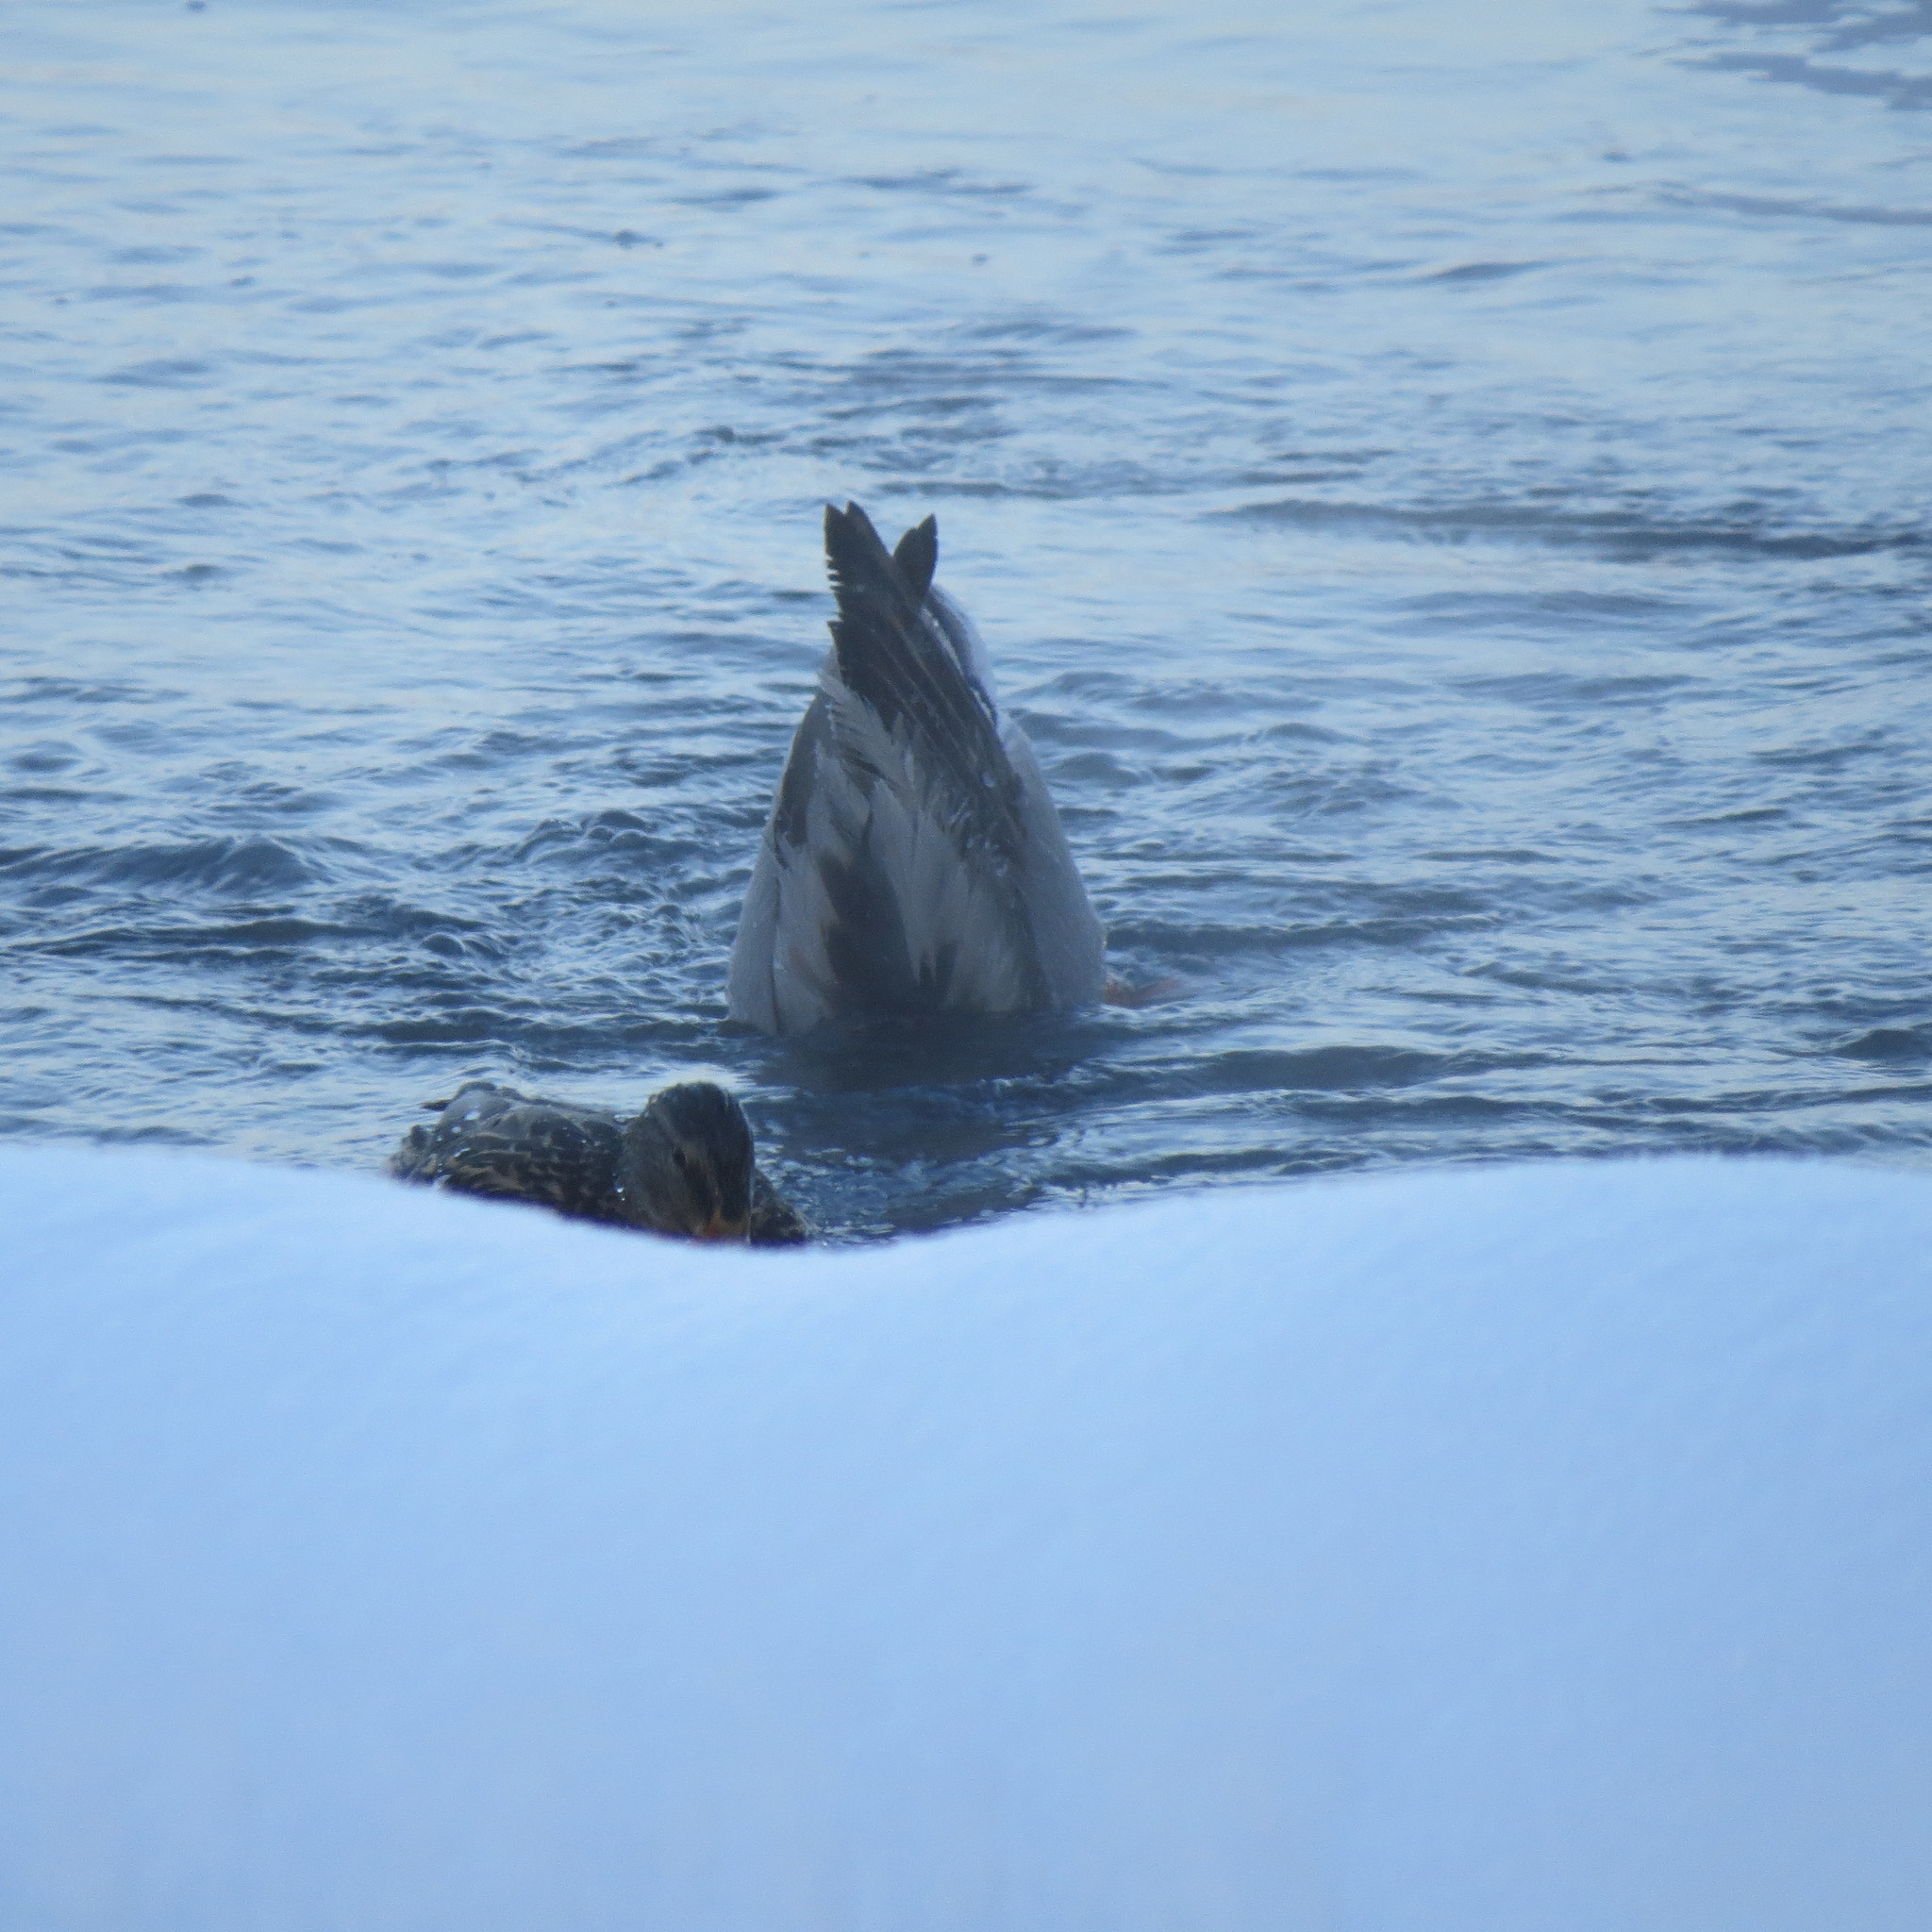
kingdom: Animalia
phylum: Chordata
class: Aves
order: Anseriformes
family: Anatidae
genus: Anas
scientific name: Anas platyrhynchos
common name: Mallard
